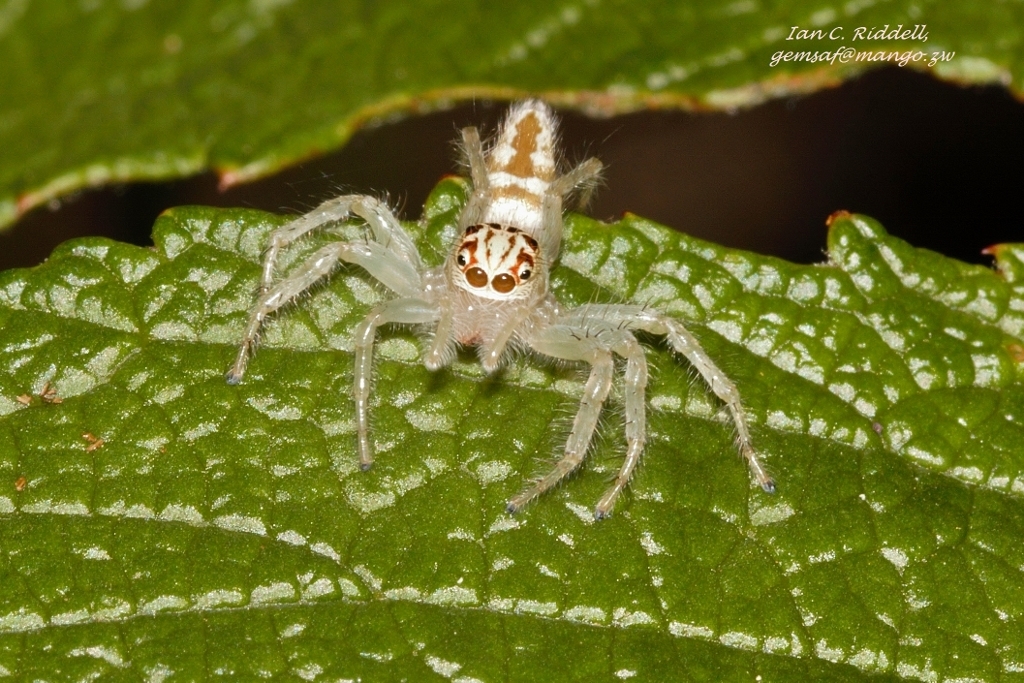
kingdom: Animalia
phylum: Arthropoda
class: Arachnida
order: Araneae
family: Salticidae
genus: Brancus
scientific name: Brancus mustelus
